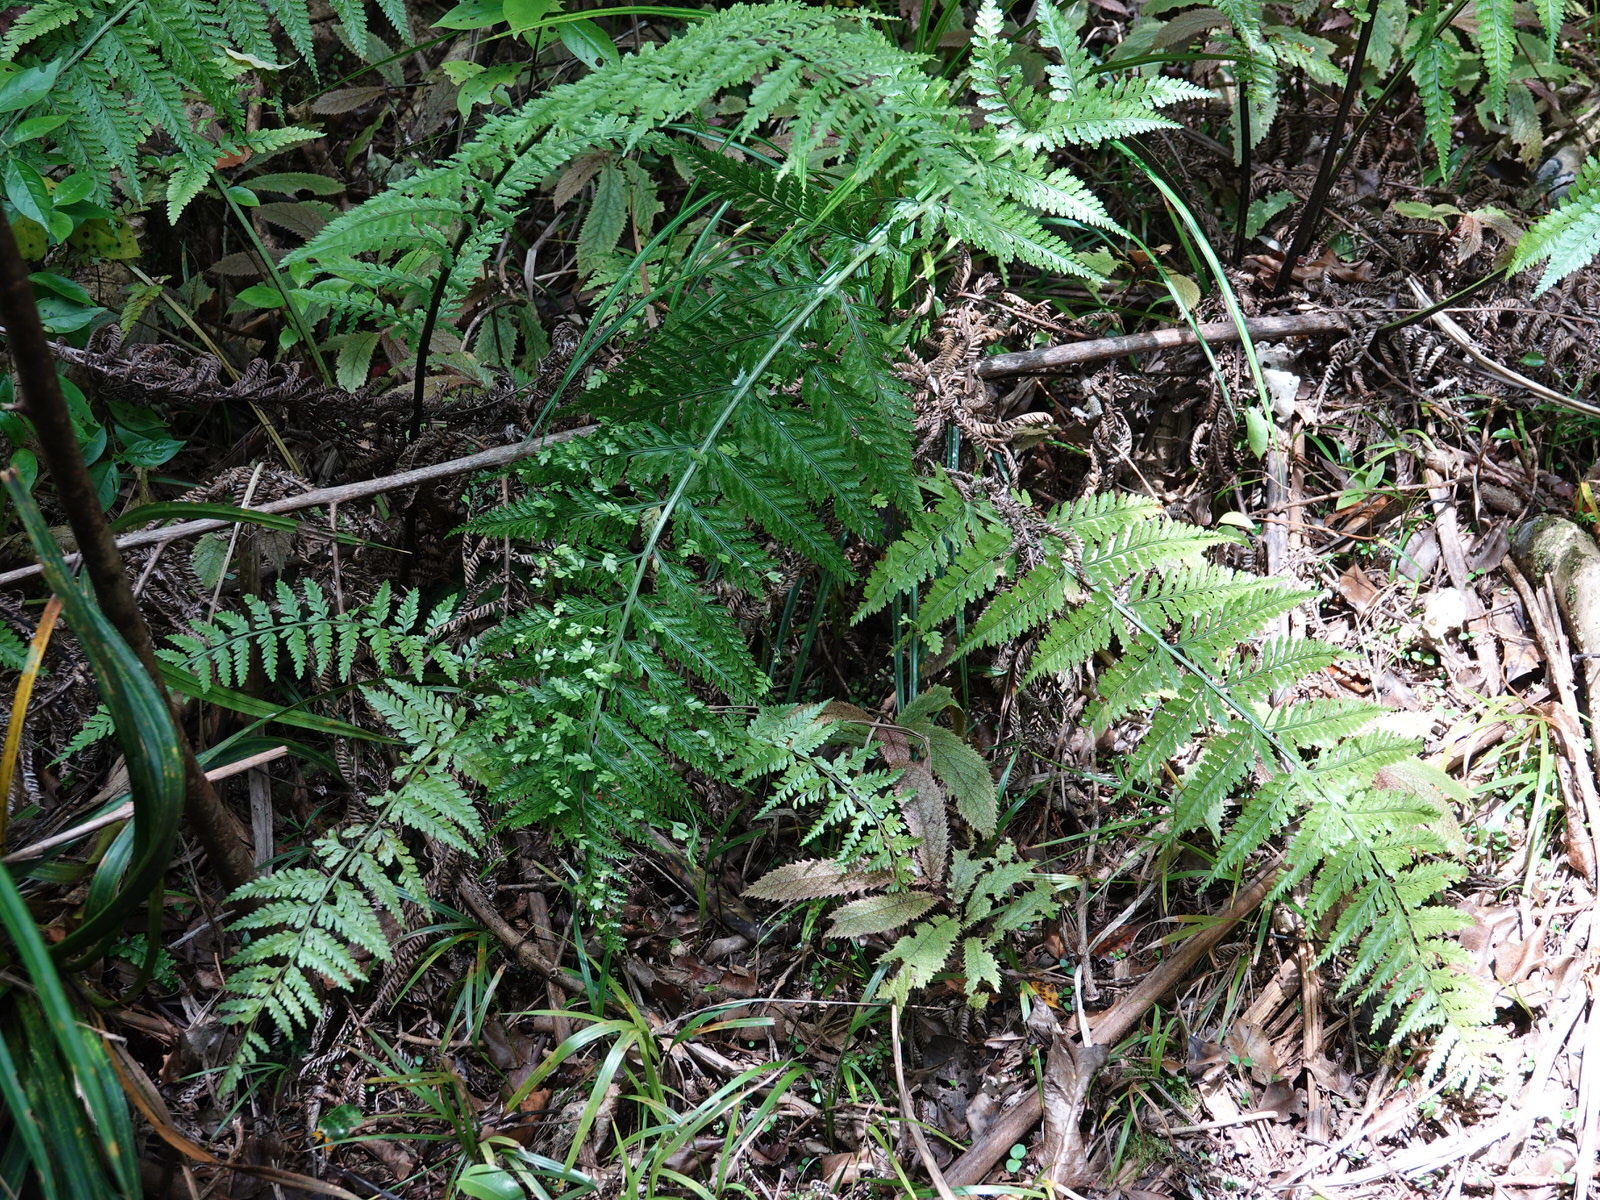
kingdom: Plantae
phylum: Tracheophyta
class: Polypodiopsida
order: Polypodiales
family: Aspleniaceae
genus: Asplenium
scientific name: Asplenium bulbiferum
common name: Mother fern
